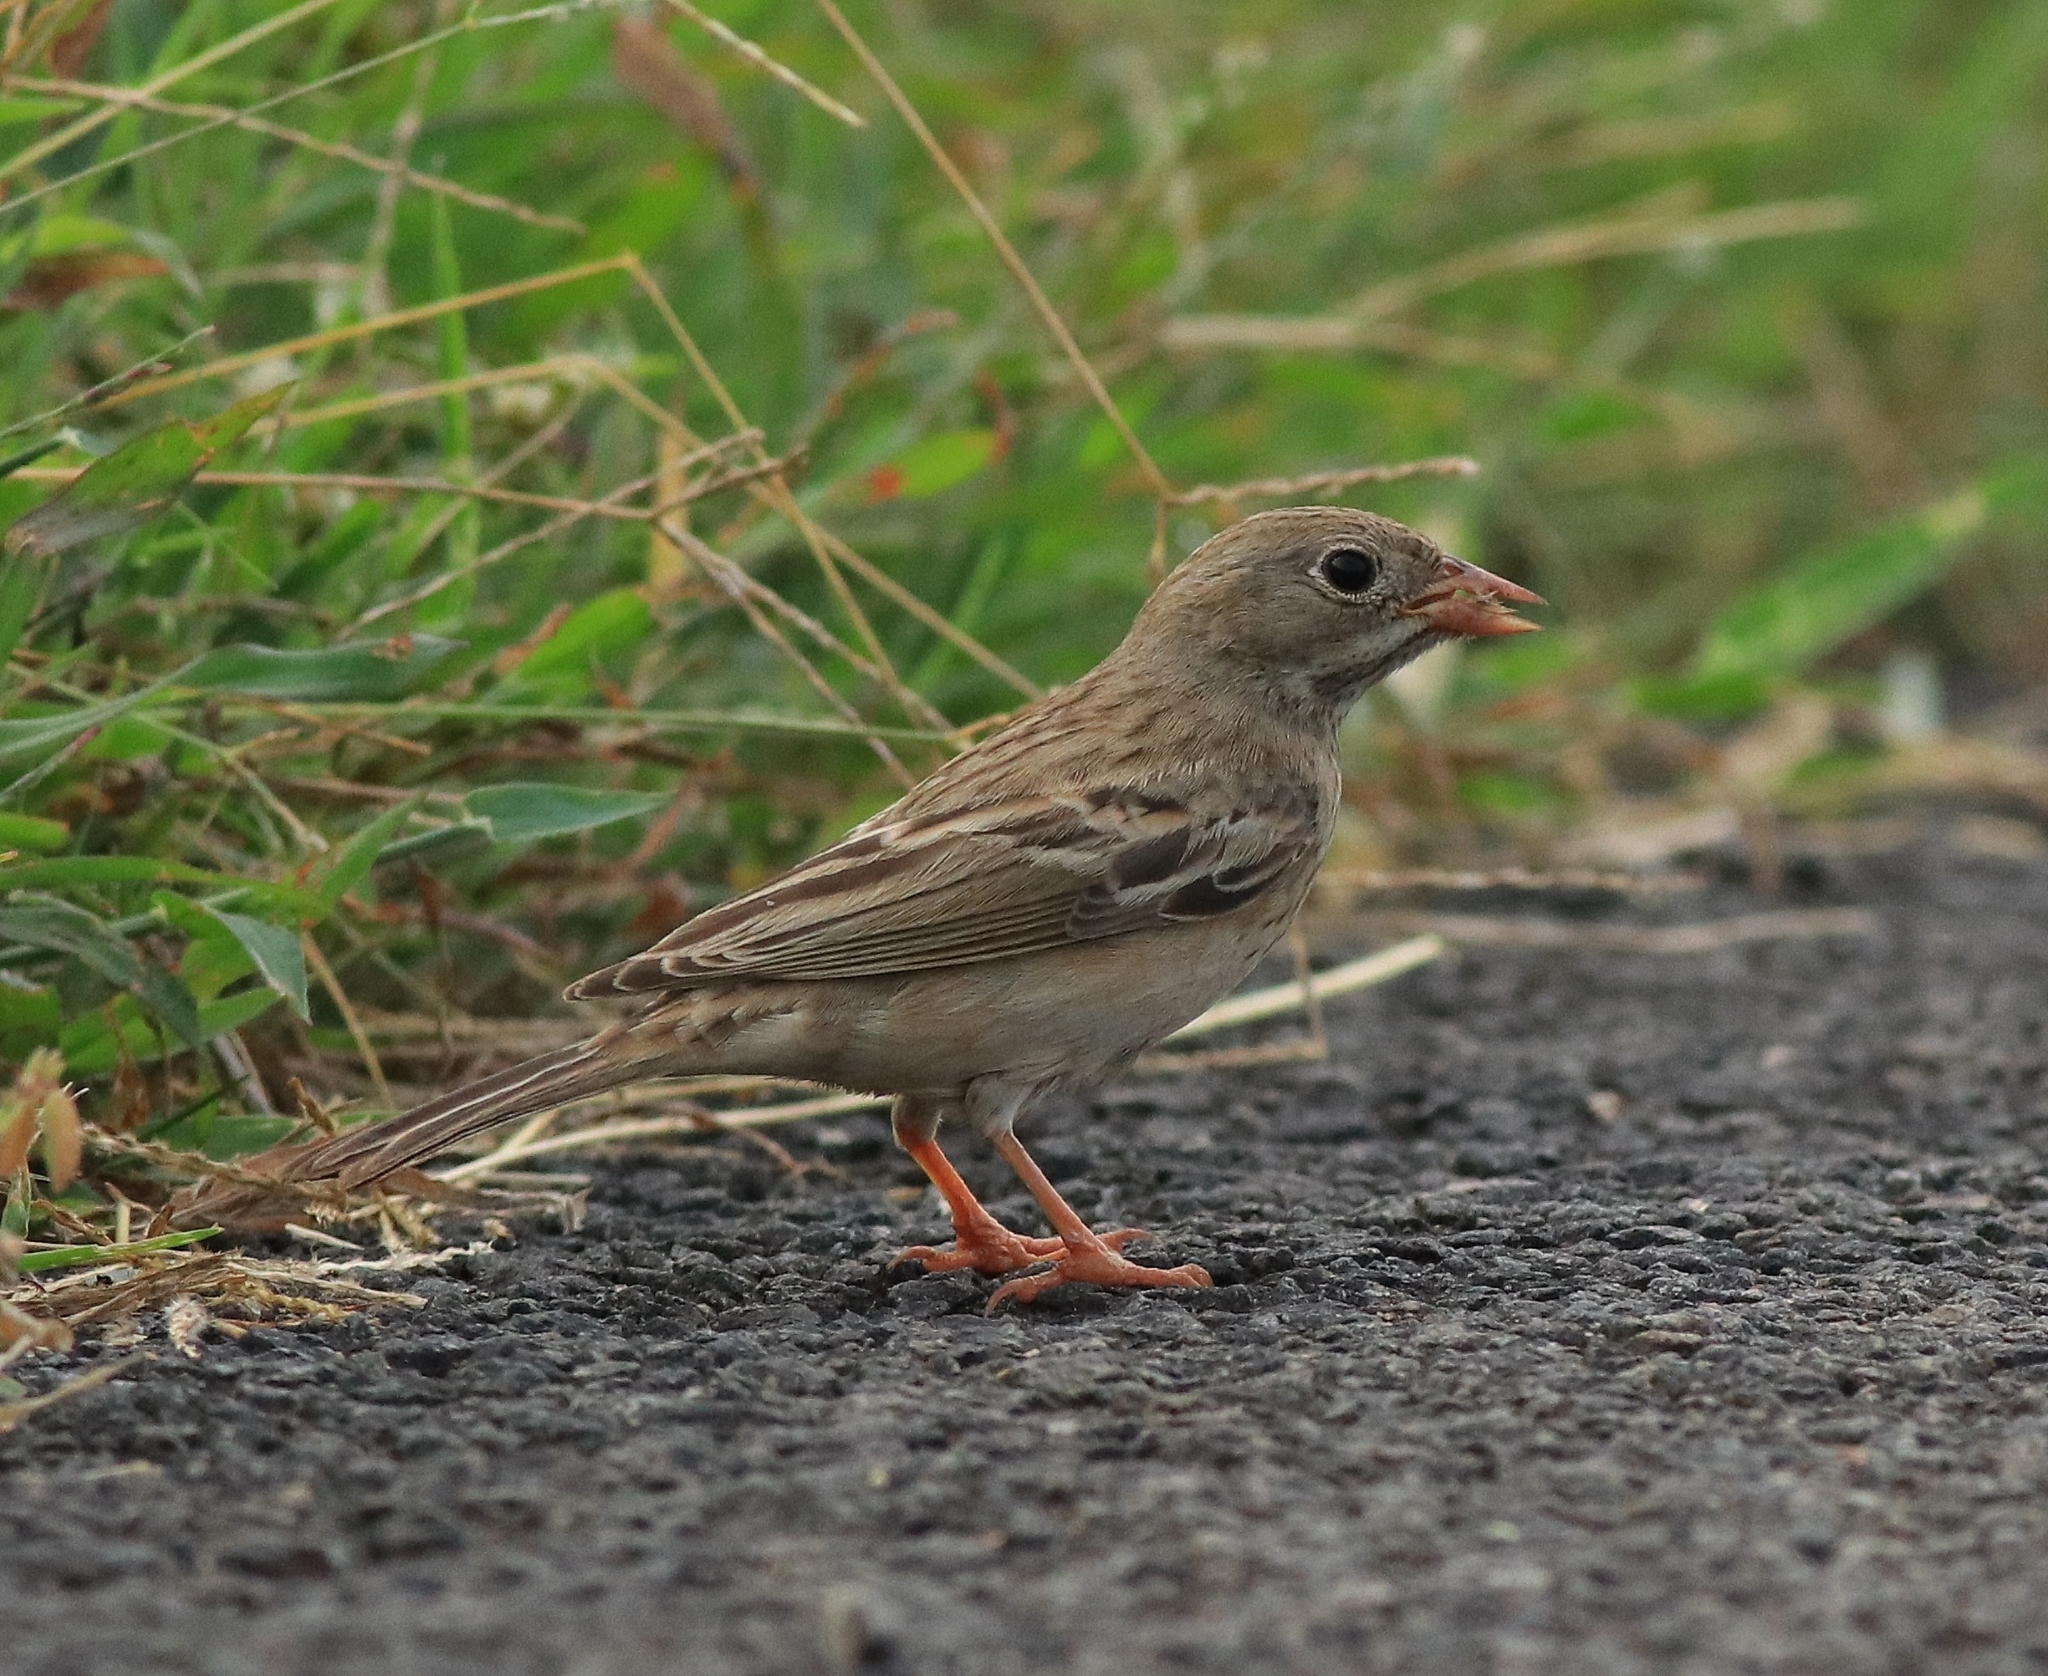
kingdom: Animalia
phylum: Chordata
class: Aves
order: Passeriformes
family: Emberizidae
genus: Emberiza
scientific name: Emberiza buchanani
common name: Grey-necked bunting
